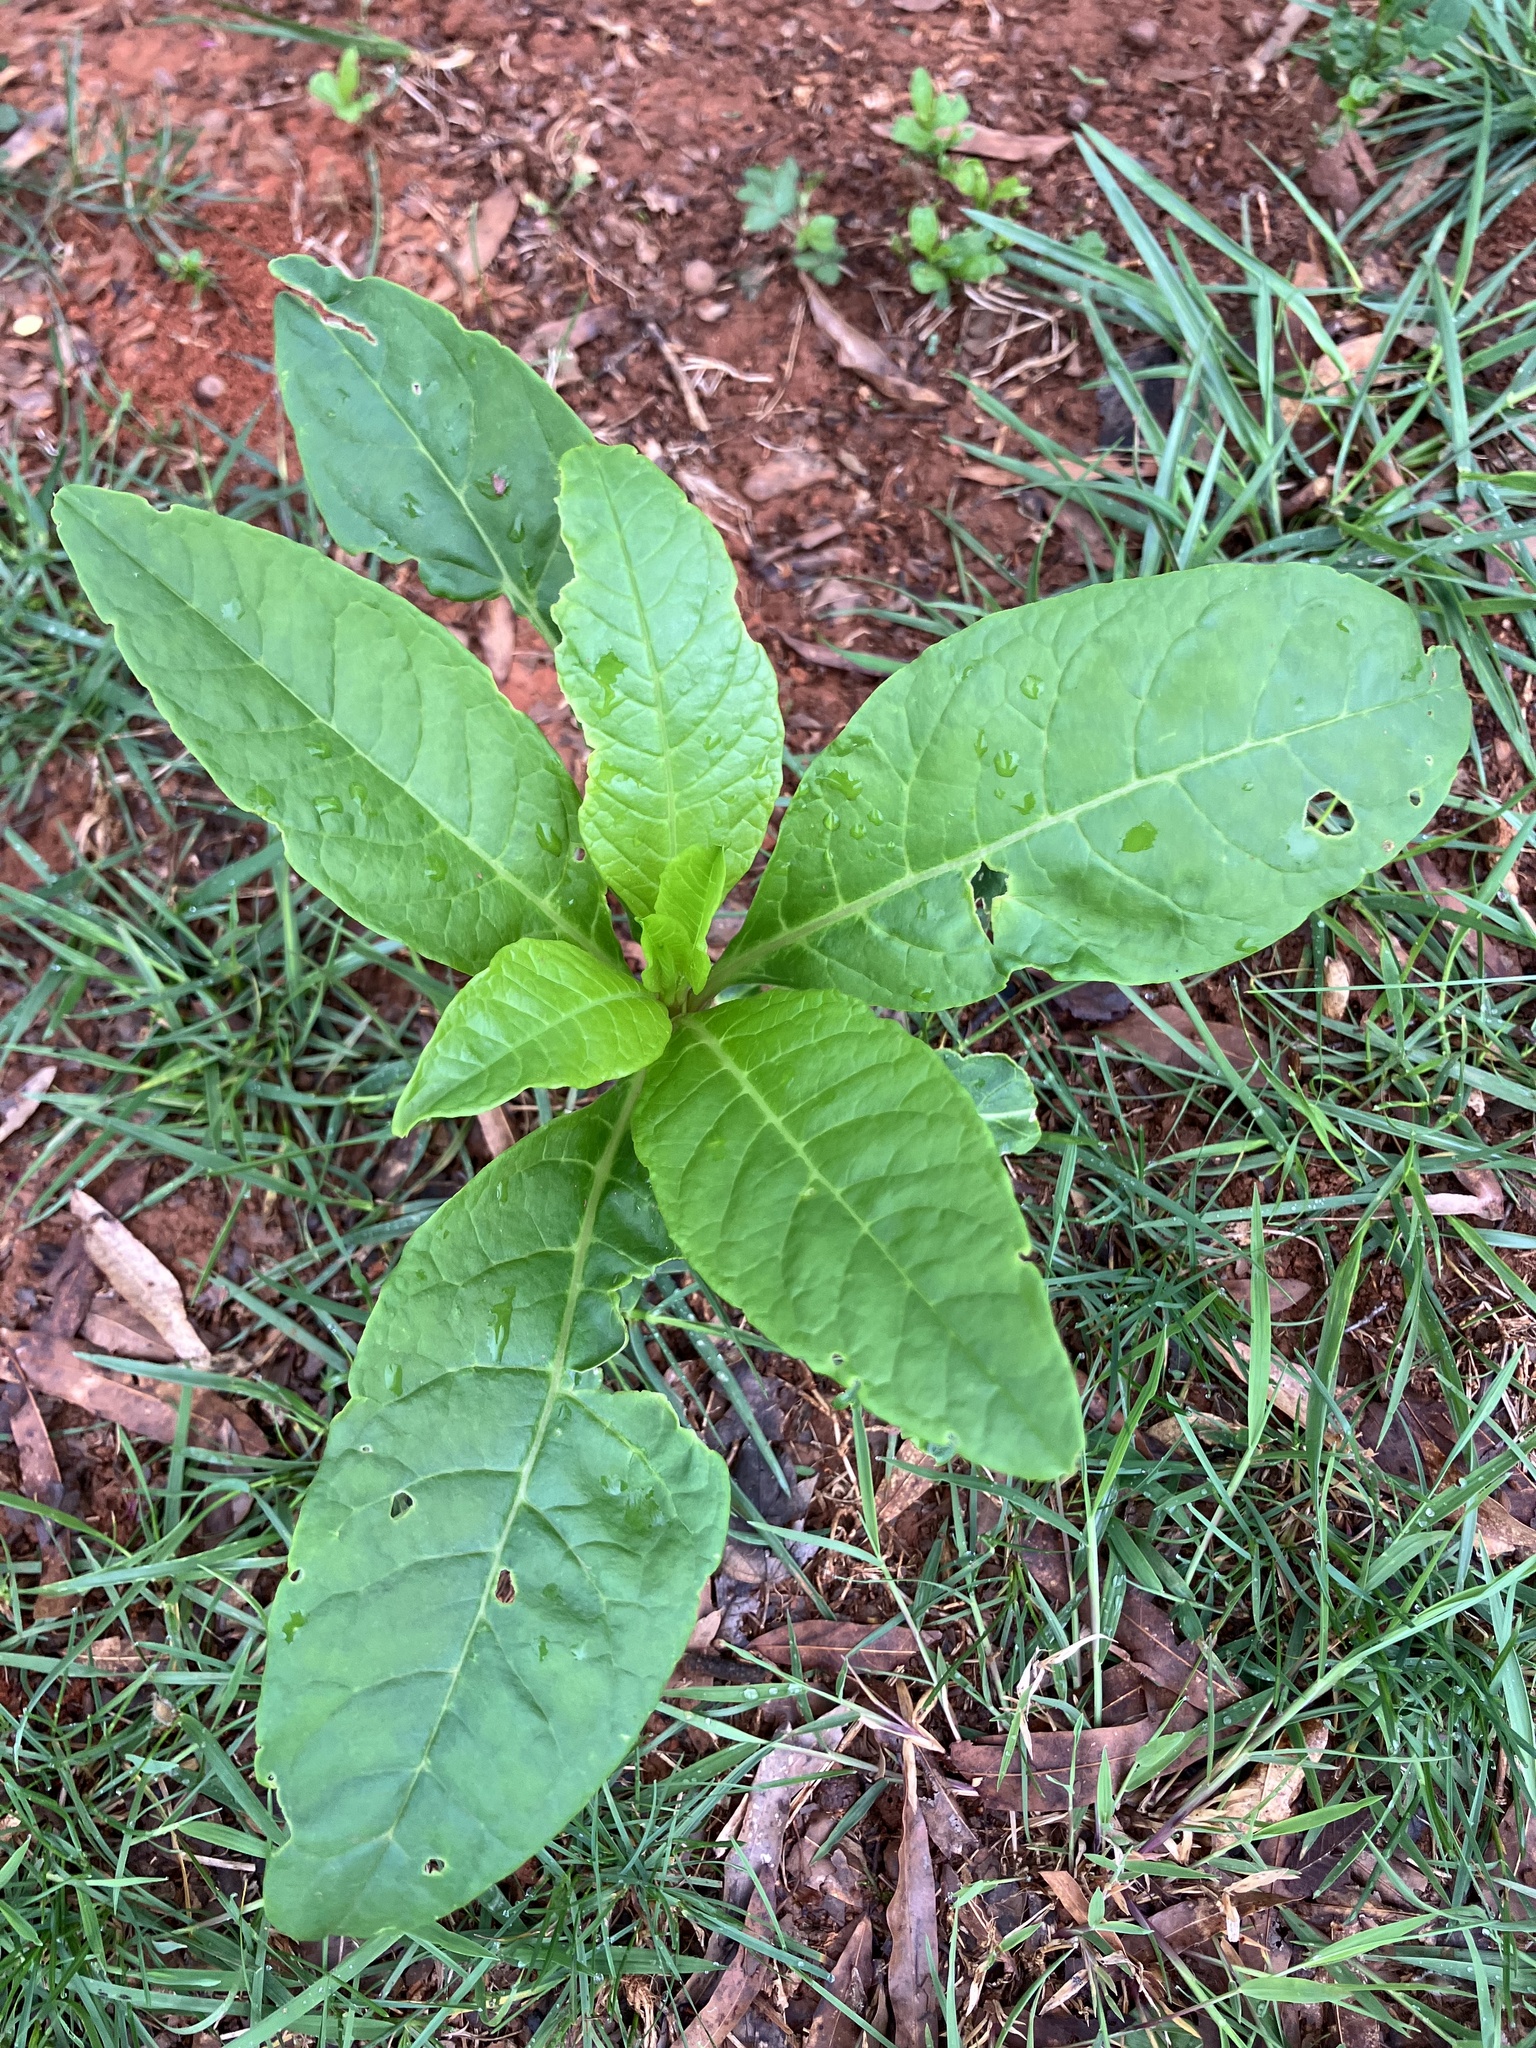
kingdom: Plantae
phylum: Tracheophyta
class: Magnoliopsida
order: Caryophyllales
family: Phytolaccaceae
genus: Phytolacca
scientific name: Phytolacca americana
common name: American pokeweed
